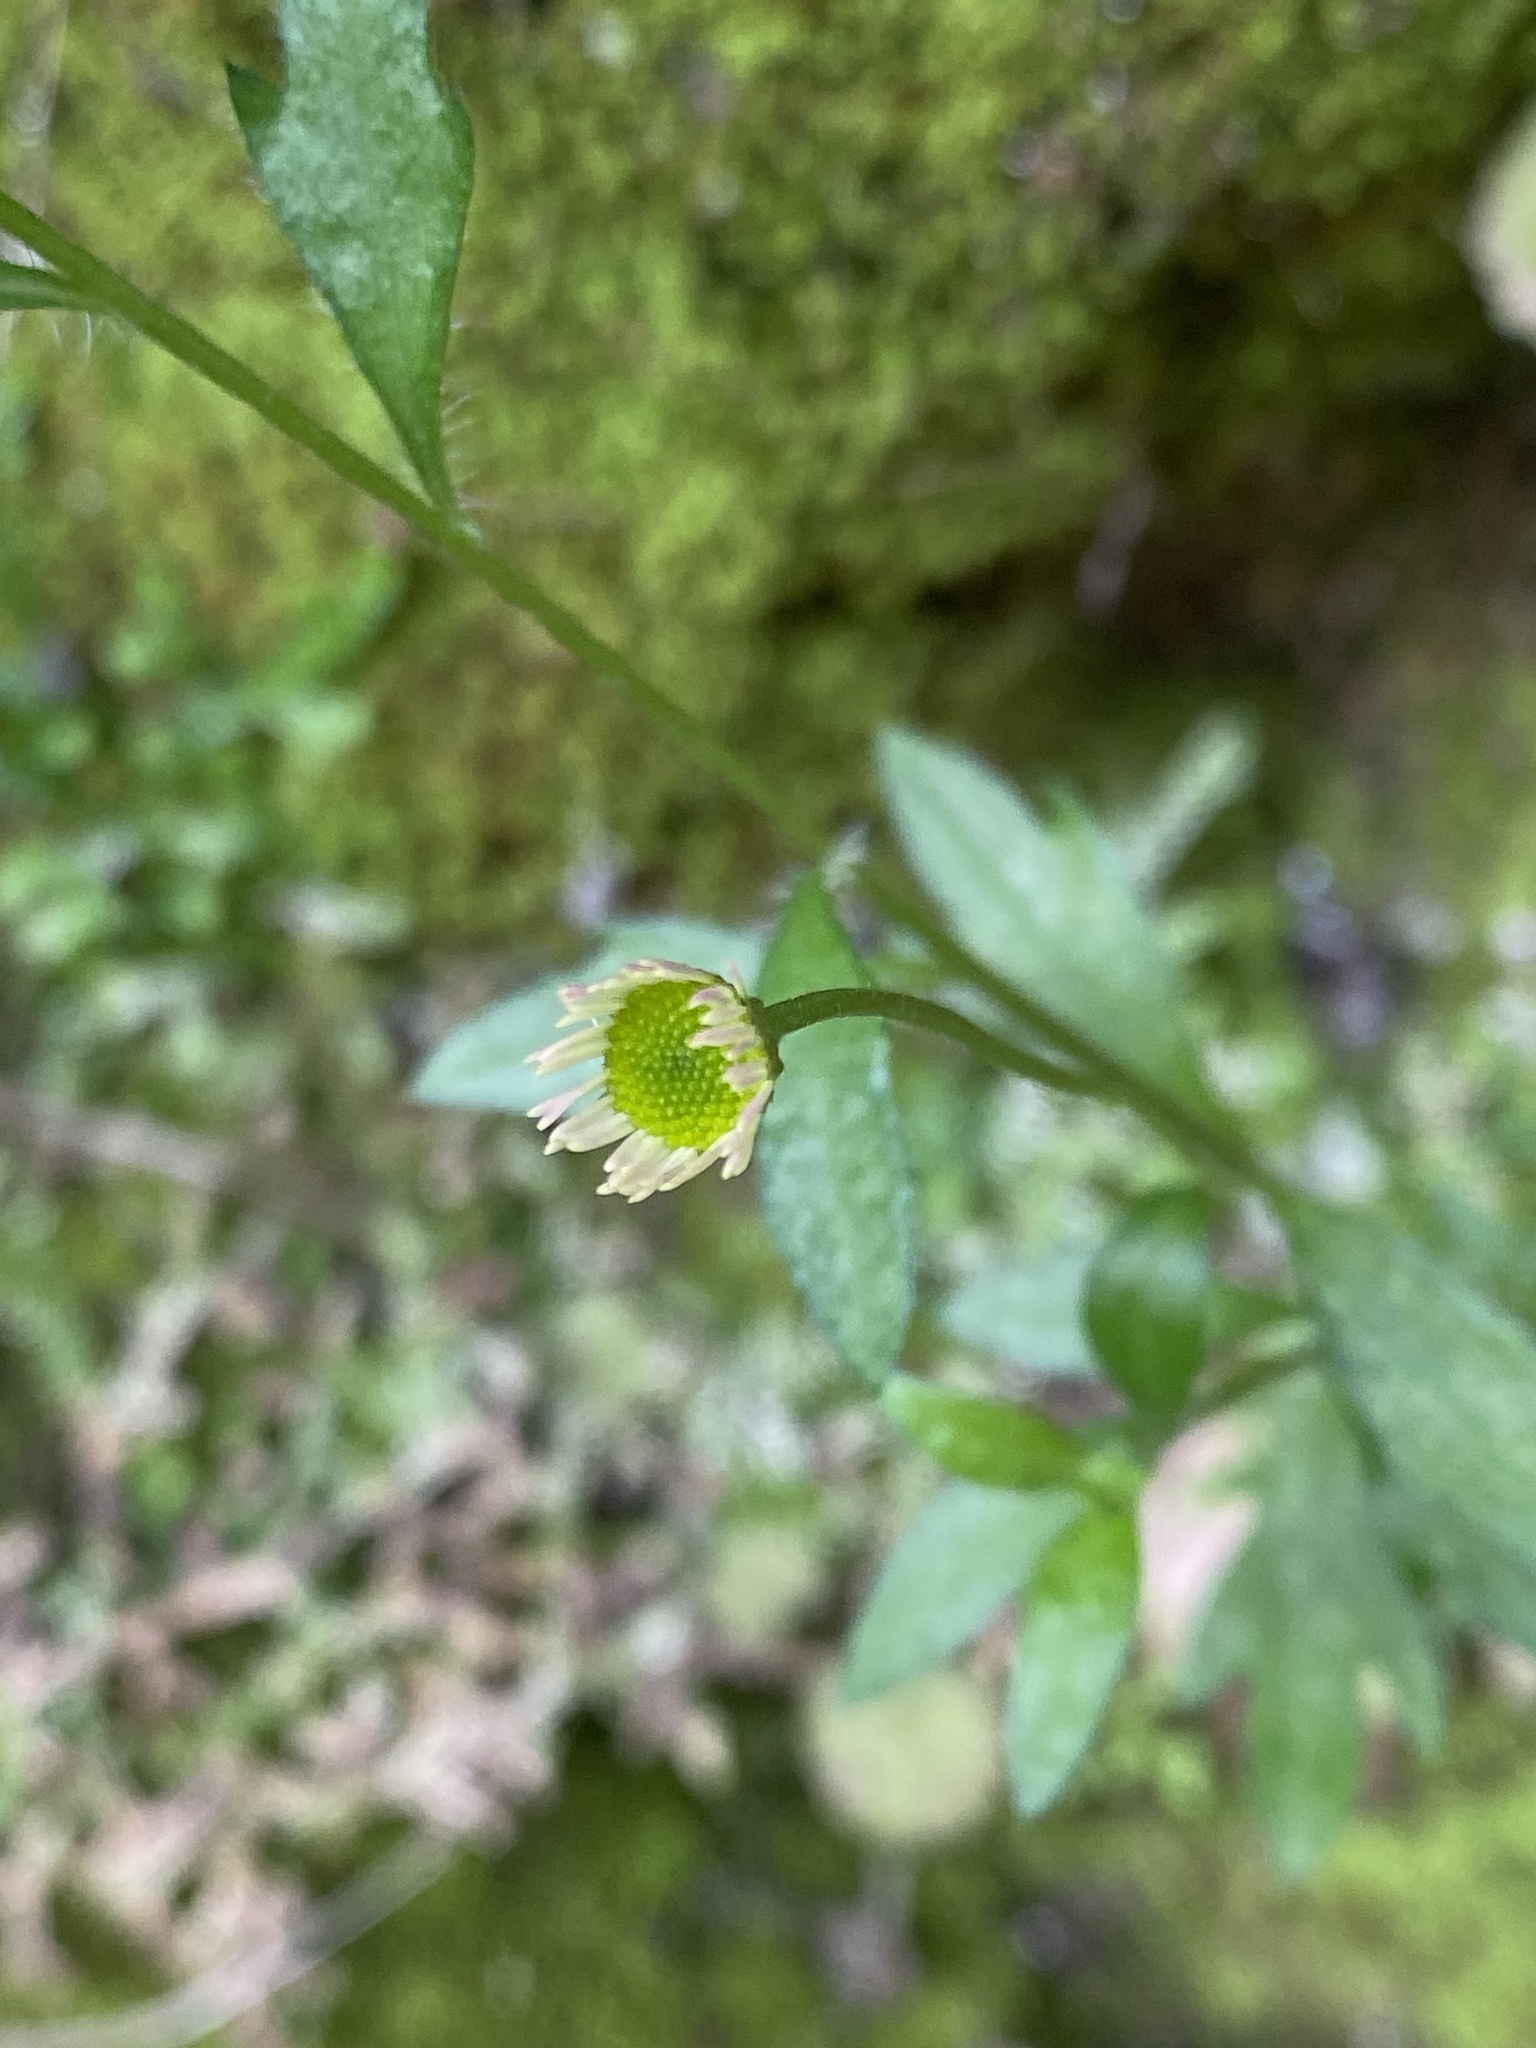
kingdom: Plantae
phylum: Tracheophyta
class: Magnoliopsida
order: Asterales
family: Asteraceae
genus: Erigeron
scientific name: Erigeron karvinskianus
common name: Mexican fleabane
